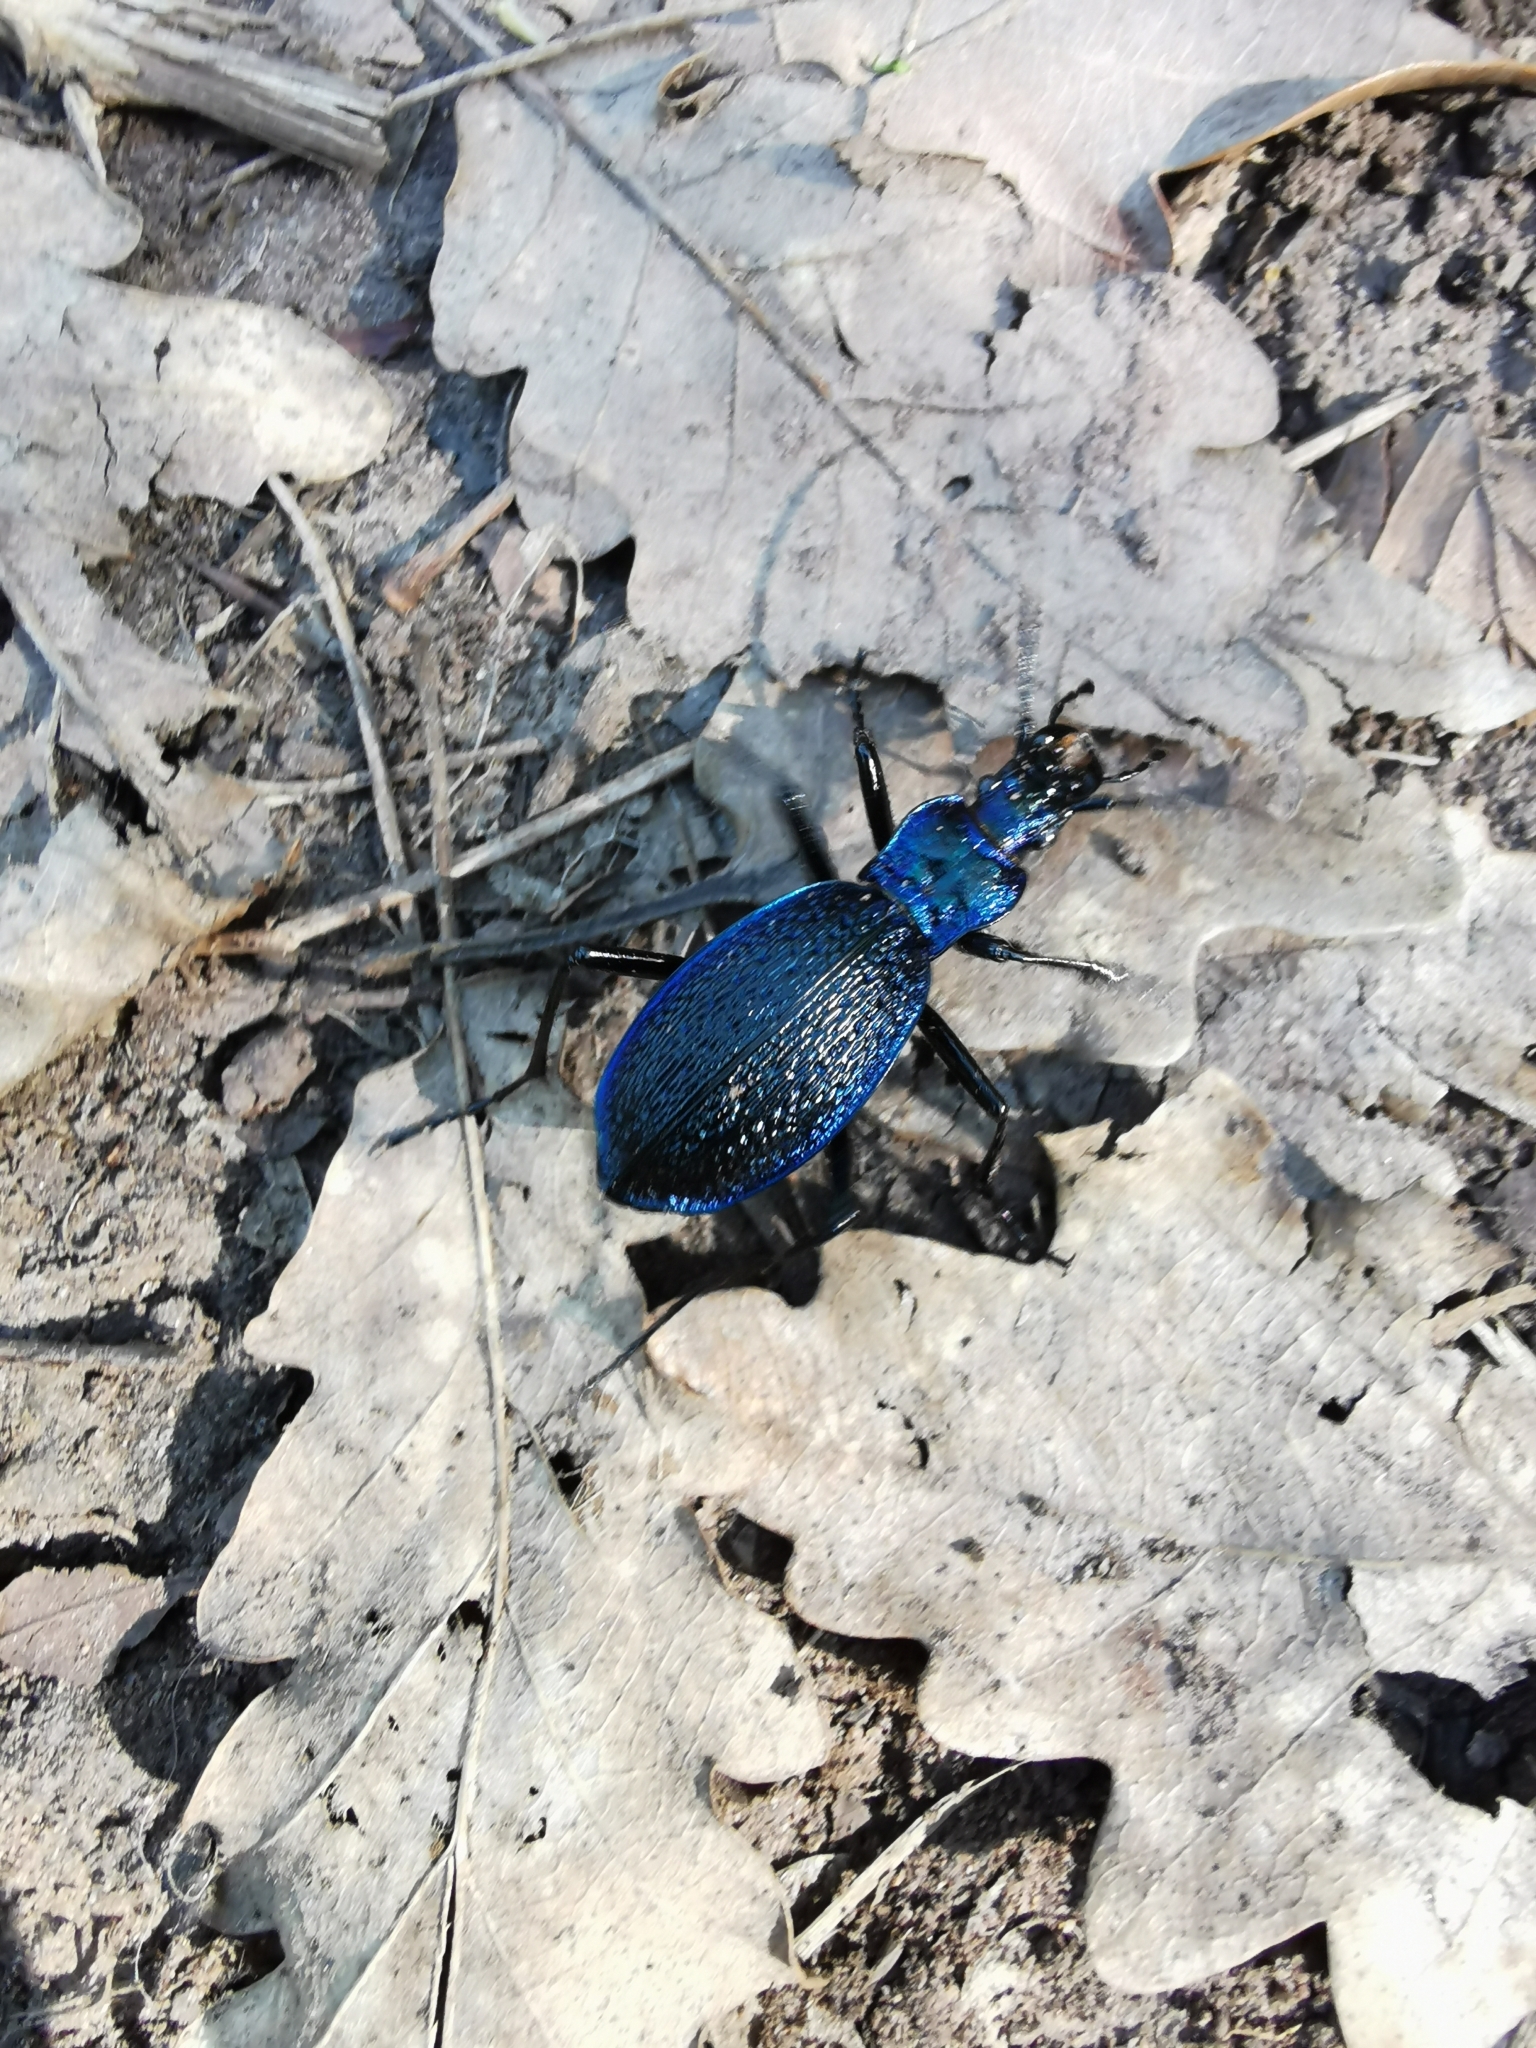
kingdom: Animalia
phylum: Arthropoda
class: Insecta
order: Coleoptera
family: Carabidae
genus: Carabus
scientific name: Carabus intricatus
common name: Blue ground beetle
